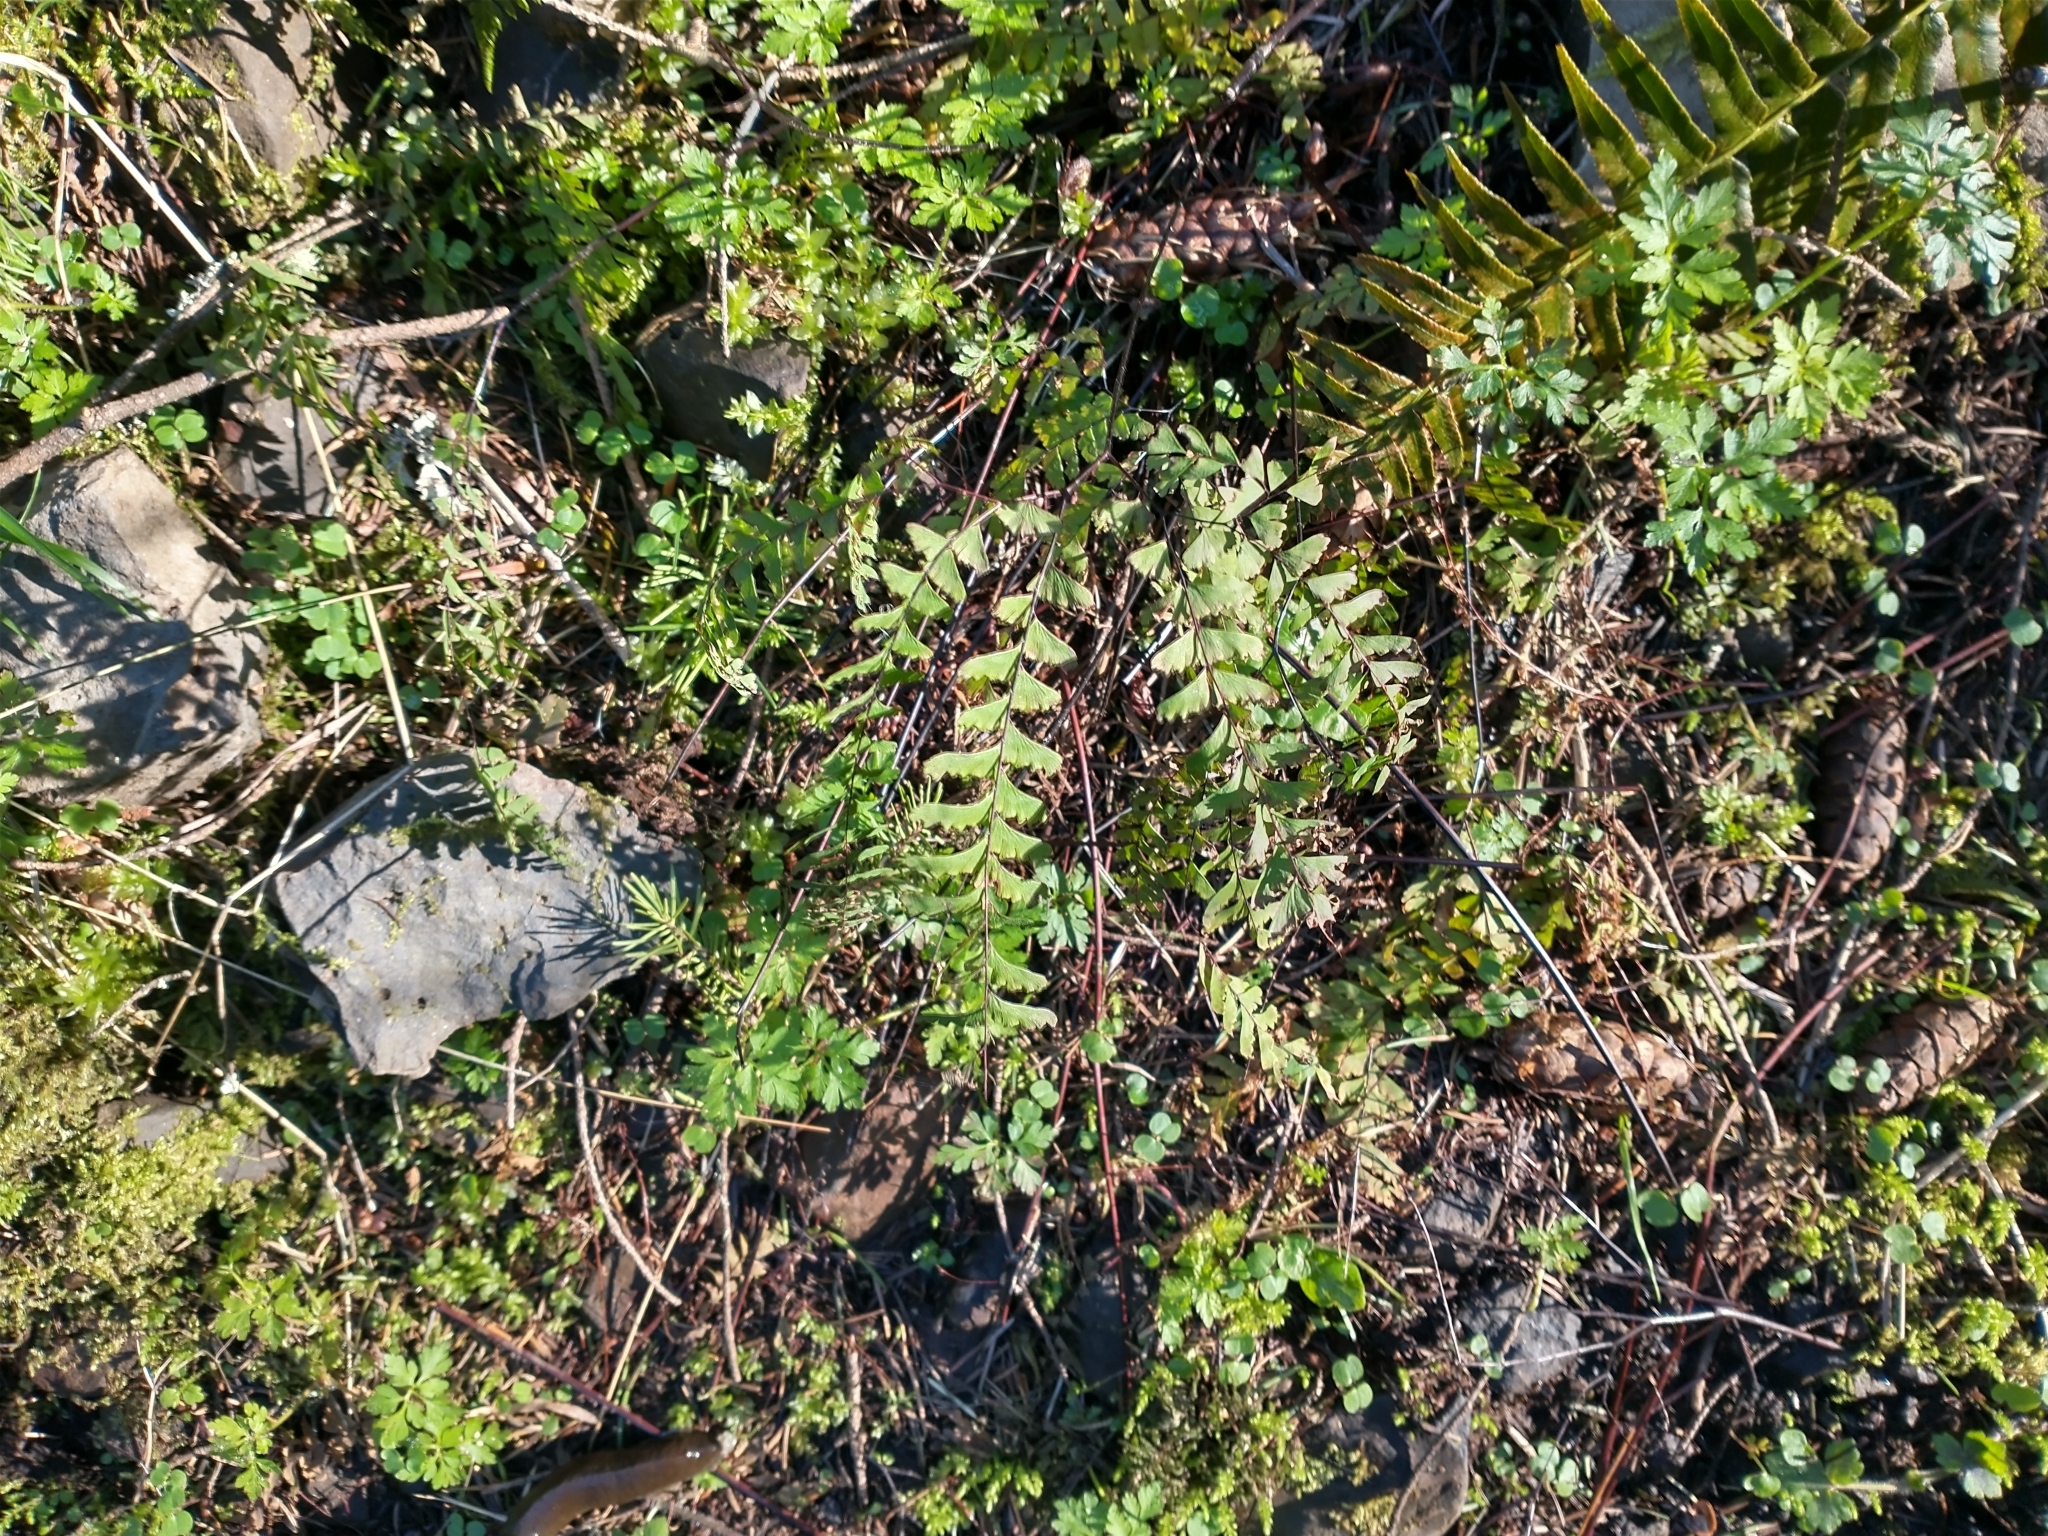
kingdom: Plantae
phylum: Tracheophyta
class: Polypodiopsida
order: Polypodiales
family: Pteridaceae
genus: Adiantum
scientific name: Adiantum aleuticum
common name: Aleutian maidenhair fern
